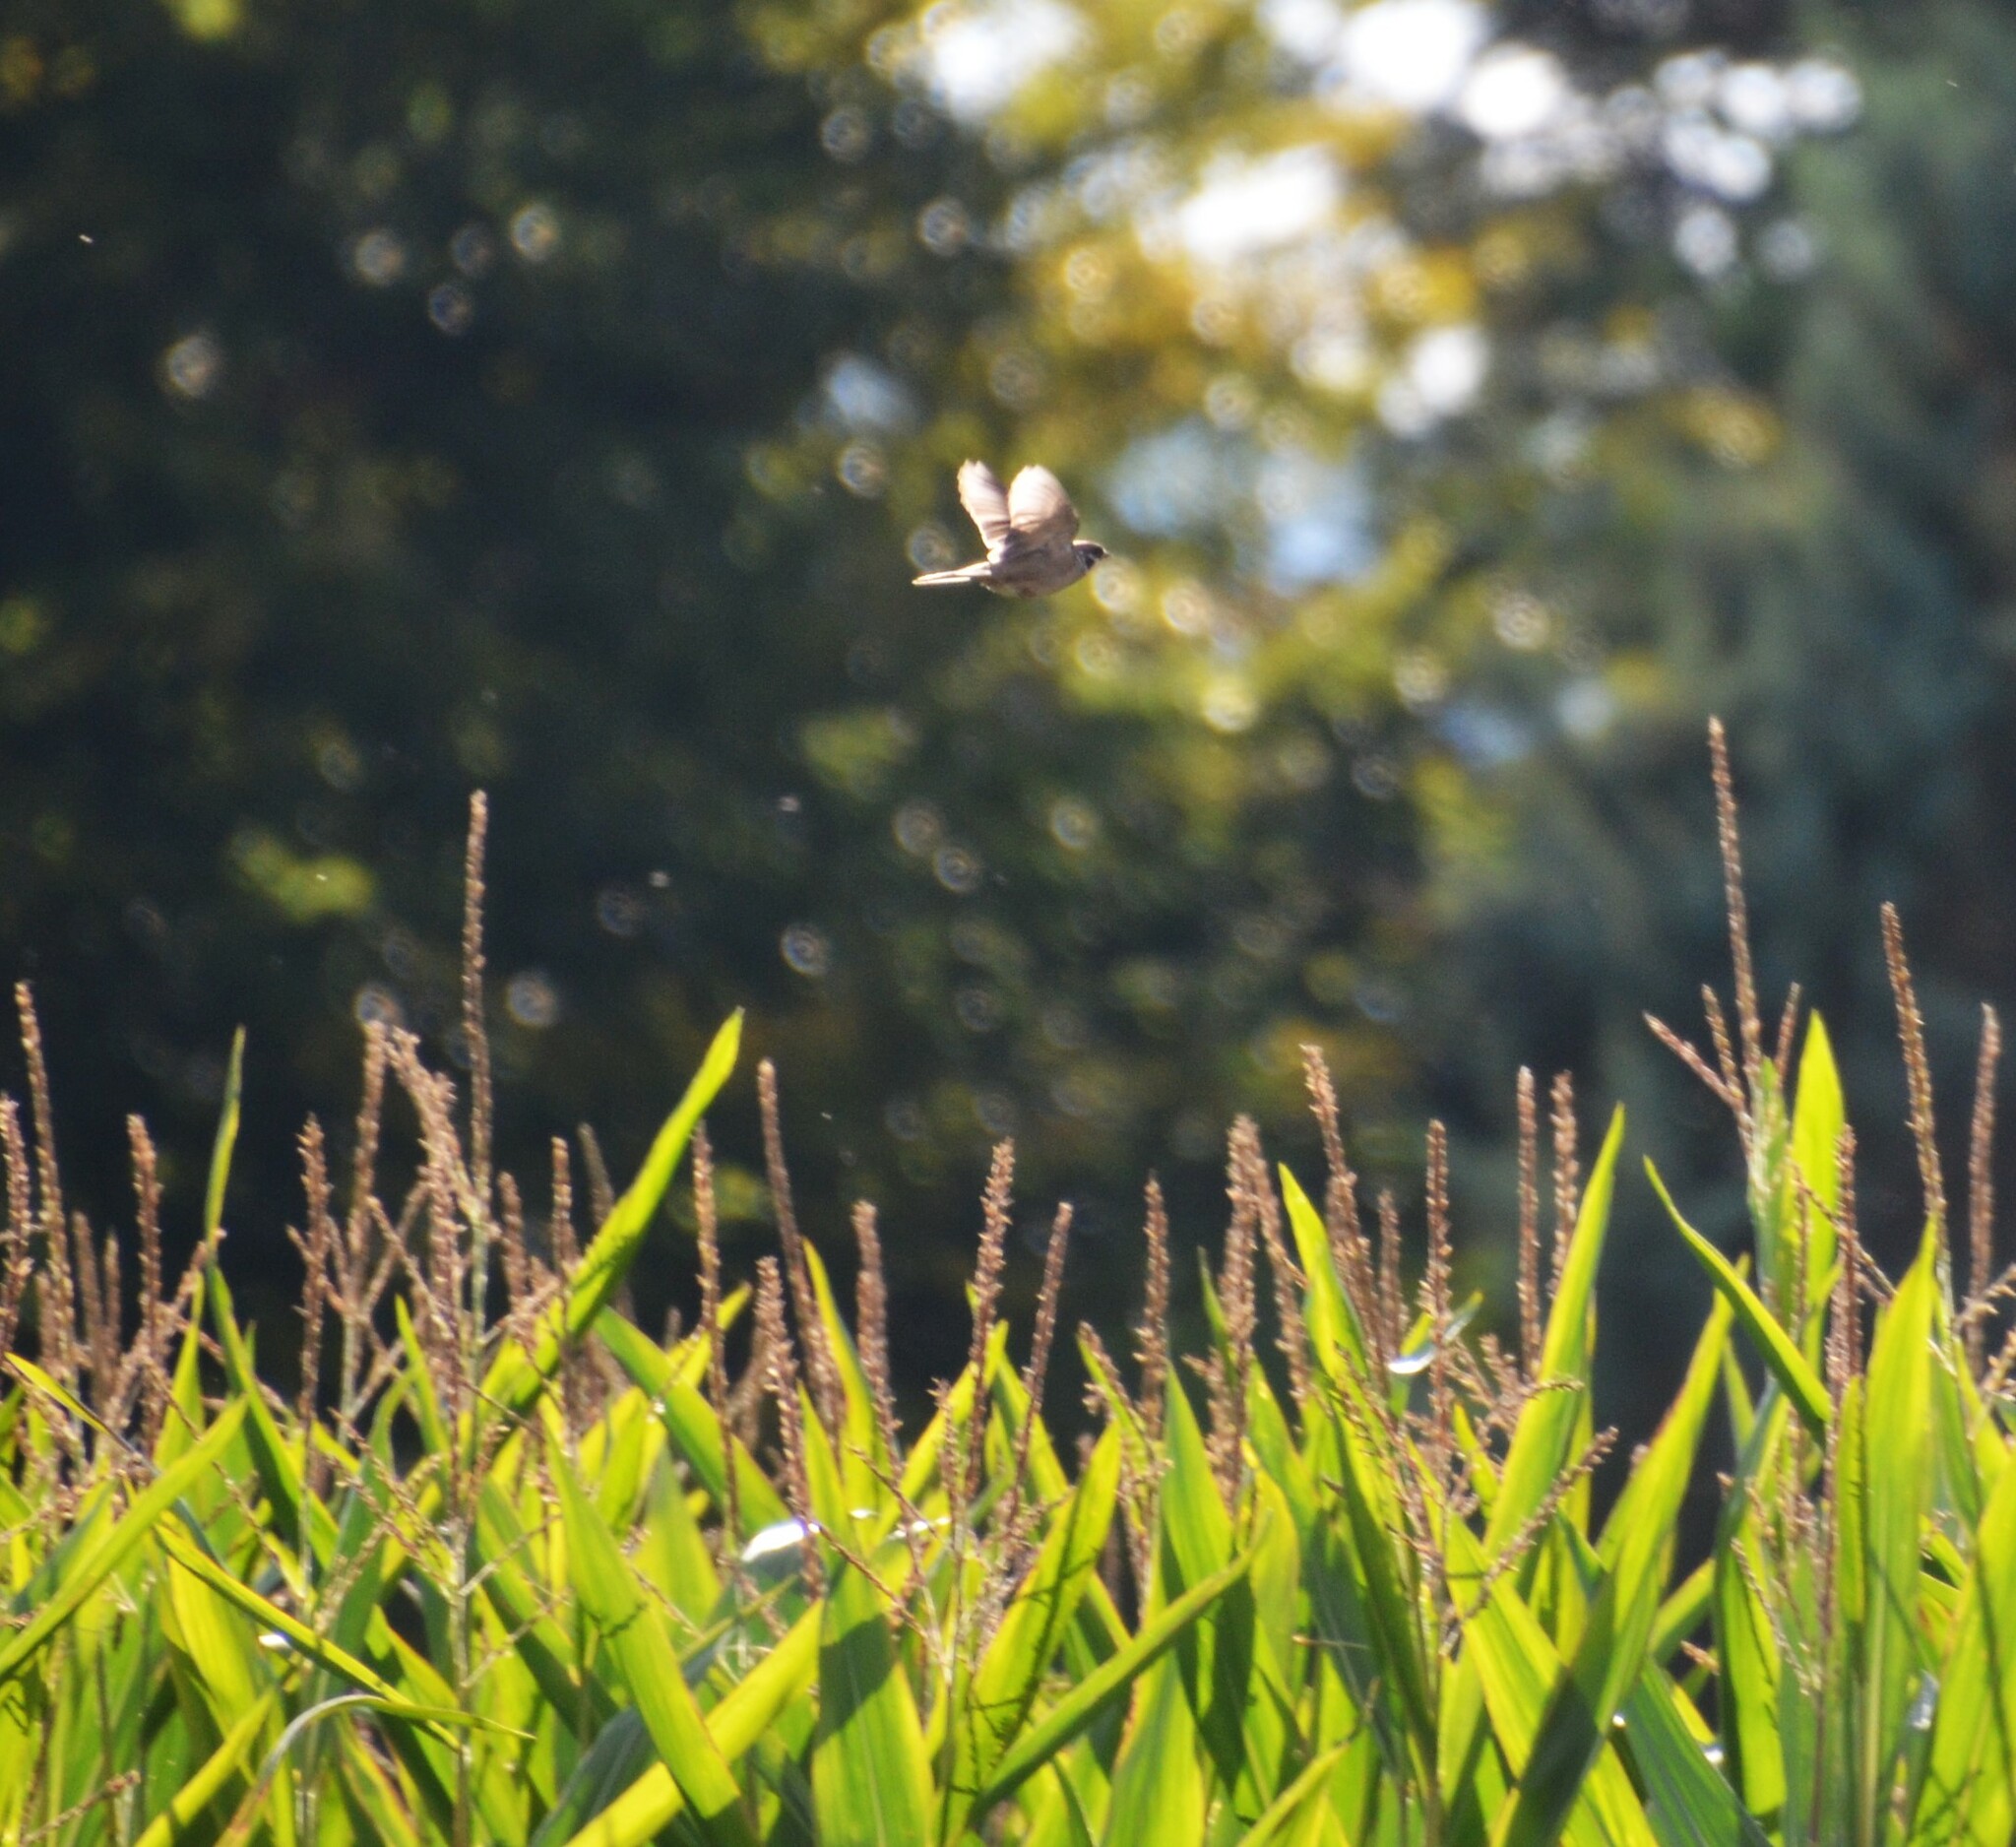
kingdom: Animalia
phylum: Chordata
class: Aves
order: Passeriformes
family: Passeridae
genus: Passer
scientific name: Passer montanus
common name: Eurasian tree sparrow
